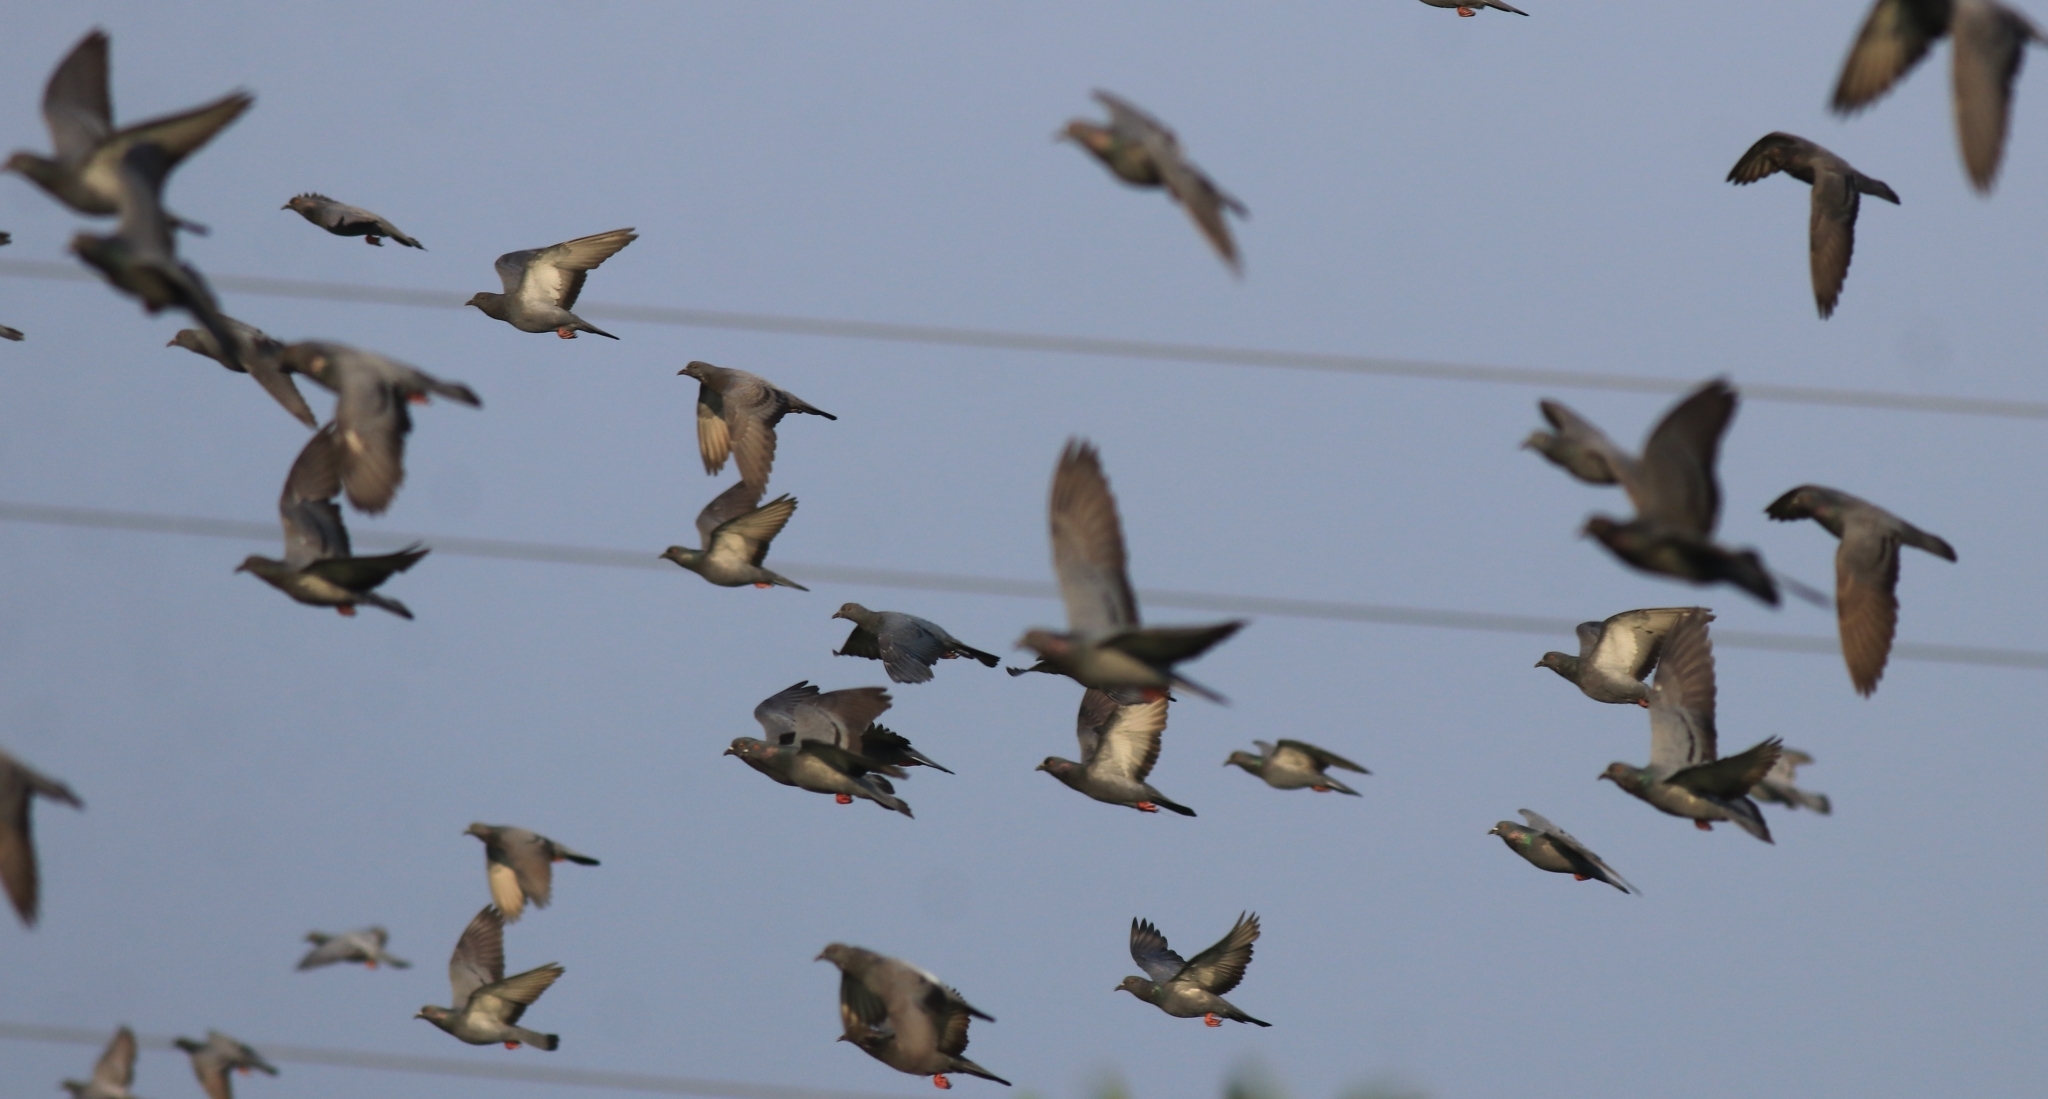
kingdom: Animalia
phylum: Chordata
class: Aves
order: Columbiformes
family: Columbidae
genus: Columba
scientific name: Columba livia
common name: Rock pigeon
